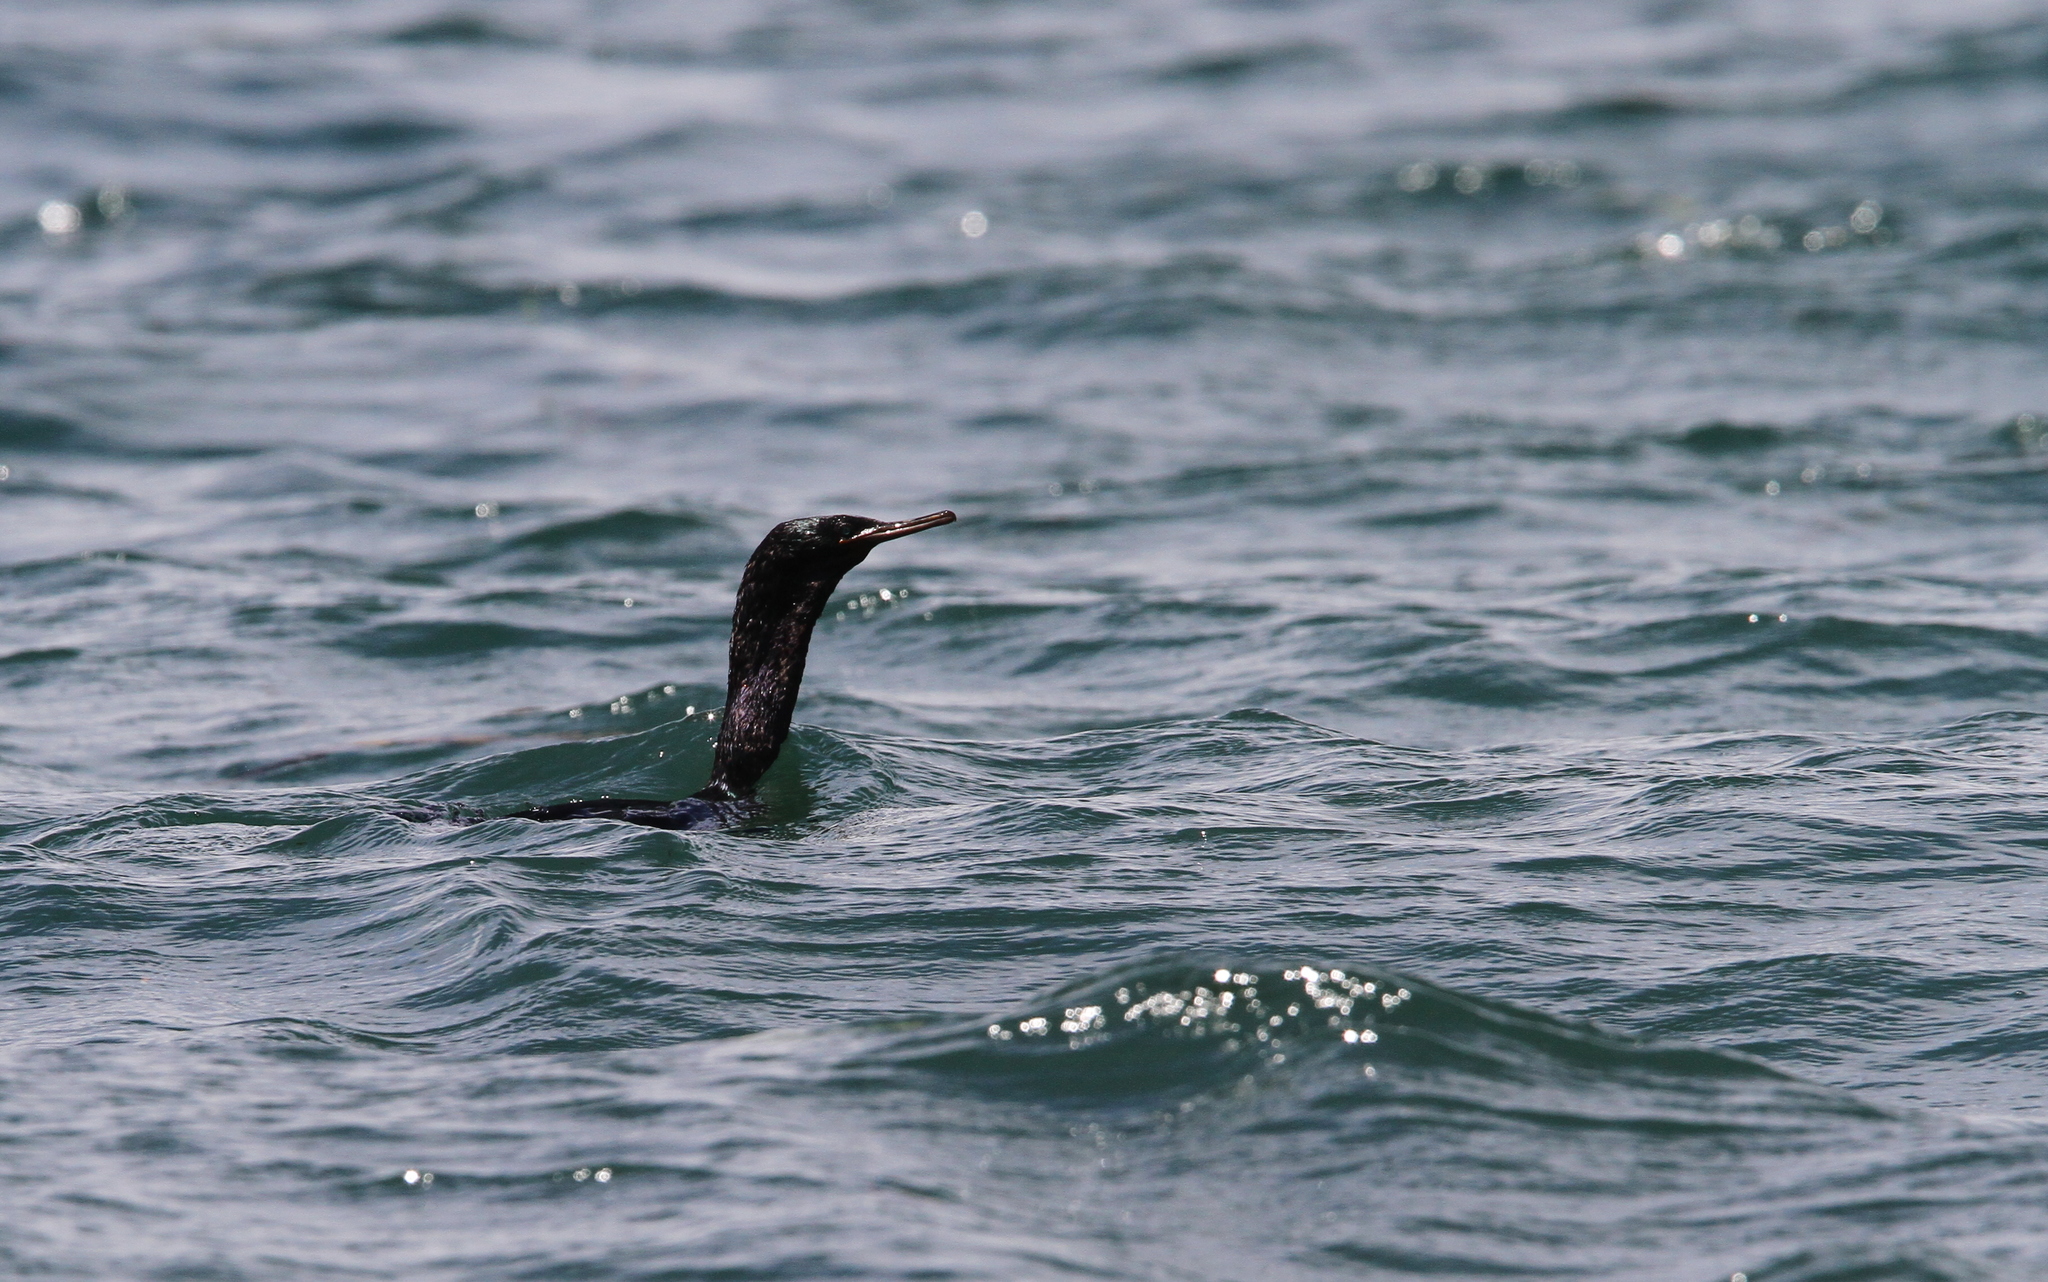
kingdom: Animalia
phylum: Chordata
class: Aves
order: Suliformes
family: Phalacrocoracidae
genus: Phalacrocorax
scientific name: Phalacrocorax pelagicus
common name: Pelagic cormorant
